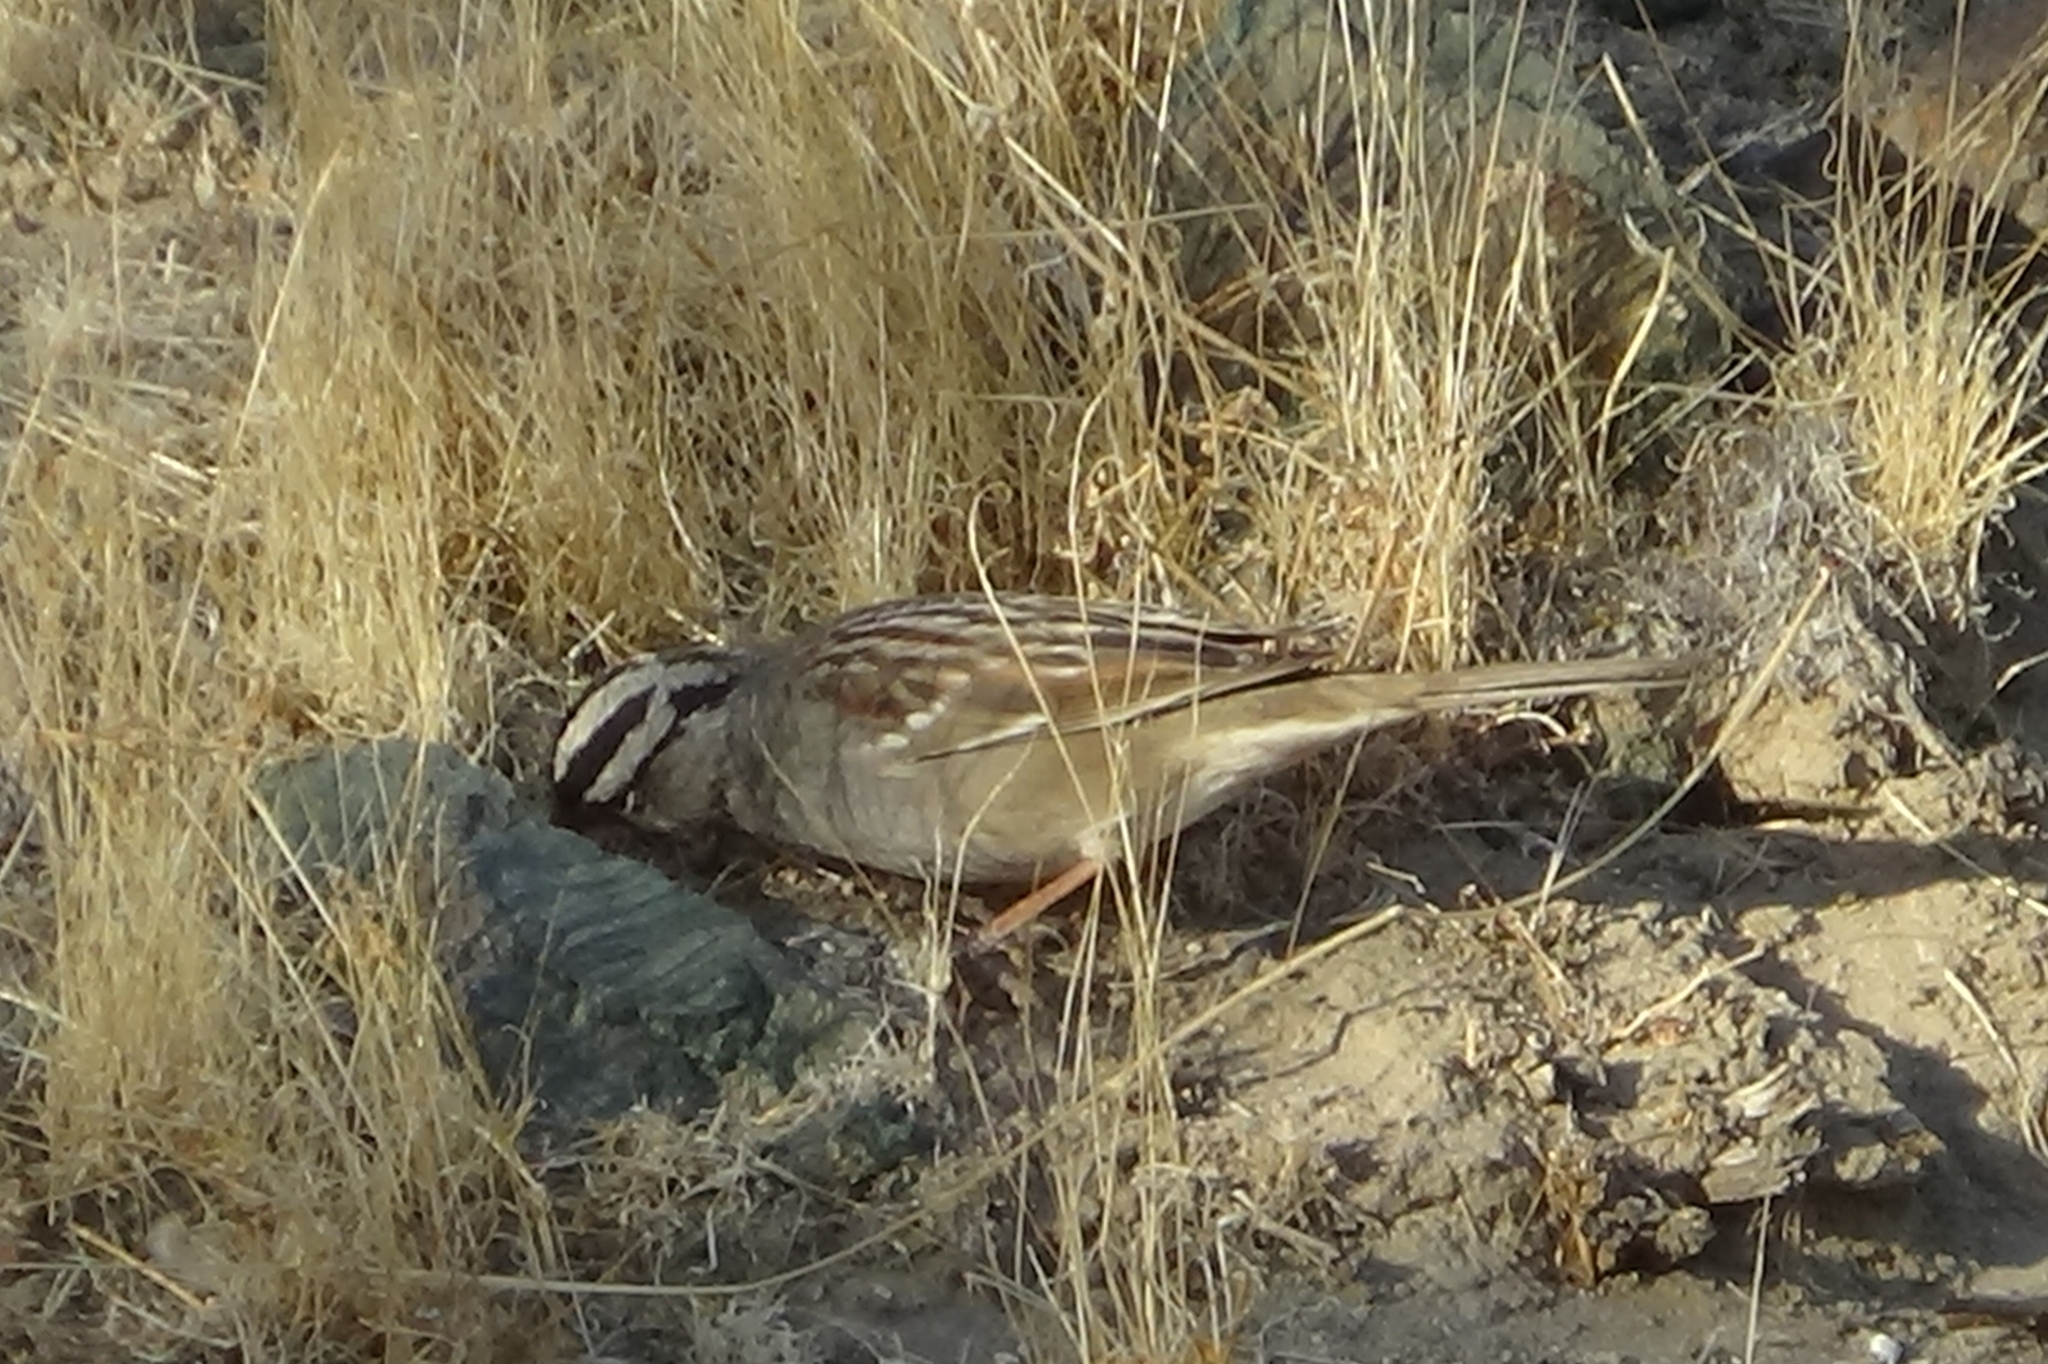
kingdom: Animalia
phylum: Chordata
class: Aves
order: Passeriformes
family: Passerellidae
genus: Zonotrichia
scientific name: Zonotrichia leucophrys
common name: White-crowned sparrow
